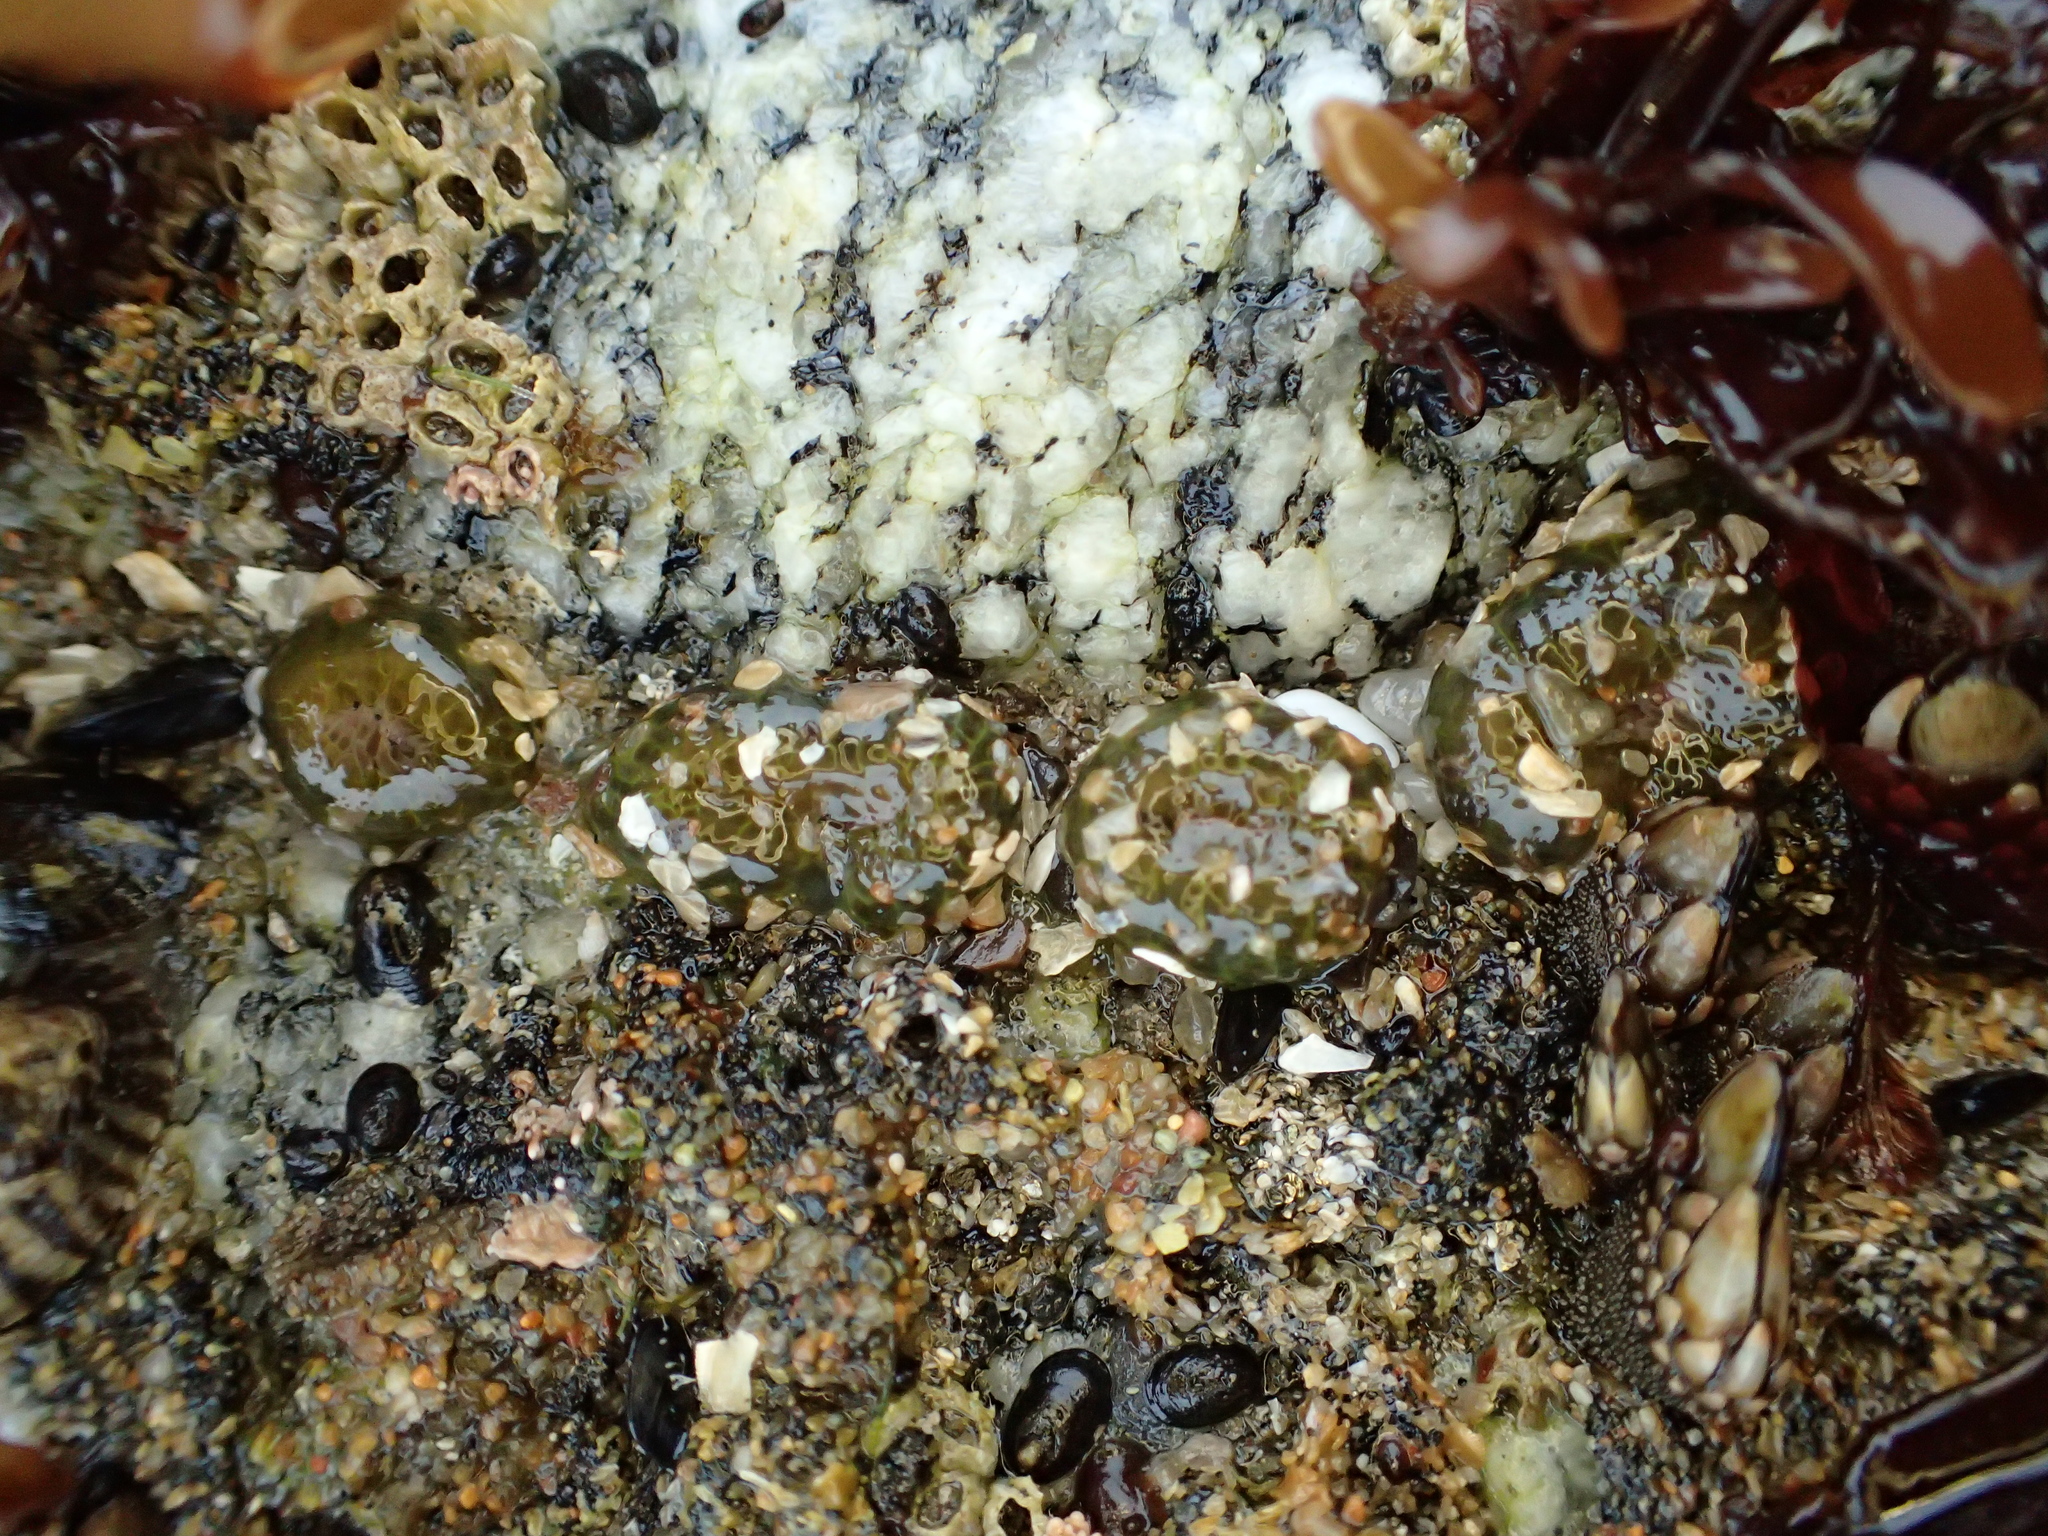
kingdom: Animalia
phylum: Cnidaria
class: Anthozoa
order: Actiniaria
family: Actiniidae
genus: Anthopleura
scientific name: Anthopleura elegantissima
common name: Clonal anemone
